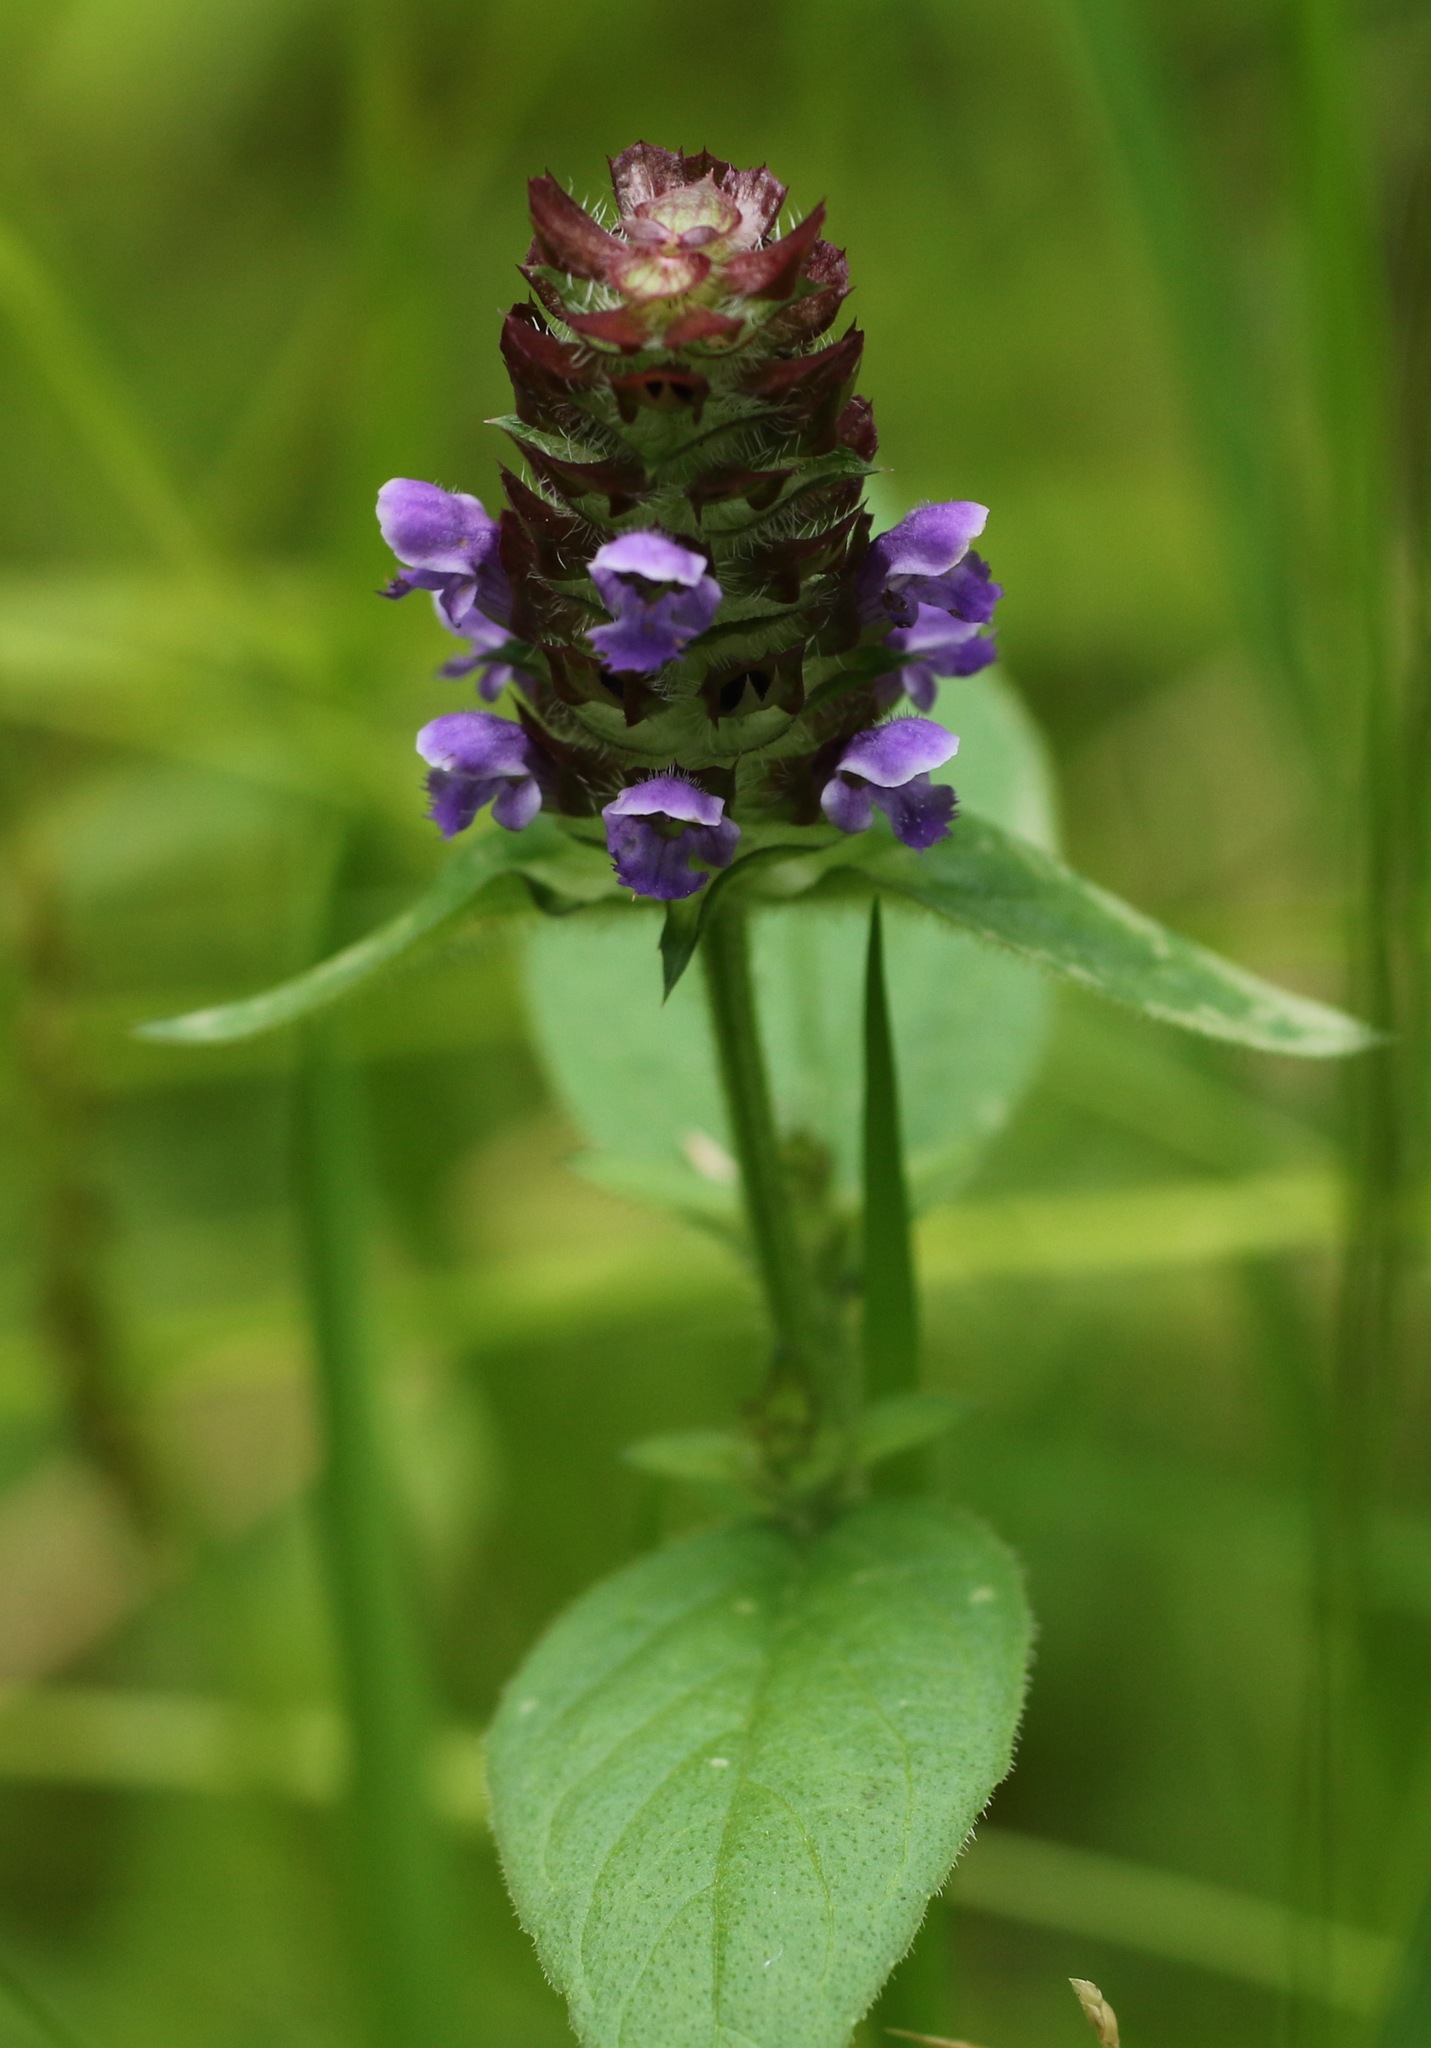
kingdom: Plantae
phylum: Tracheophyta
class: Magnoliopsida
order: Lamiales
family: Lamiaceae
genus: Prunella
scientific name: Prunella vulgaris
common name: Heal-all
